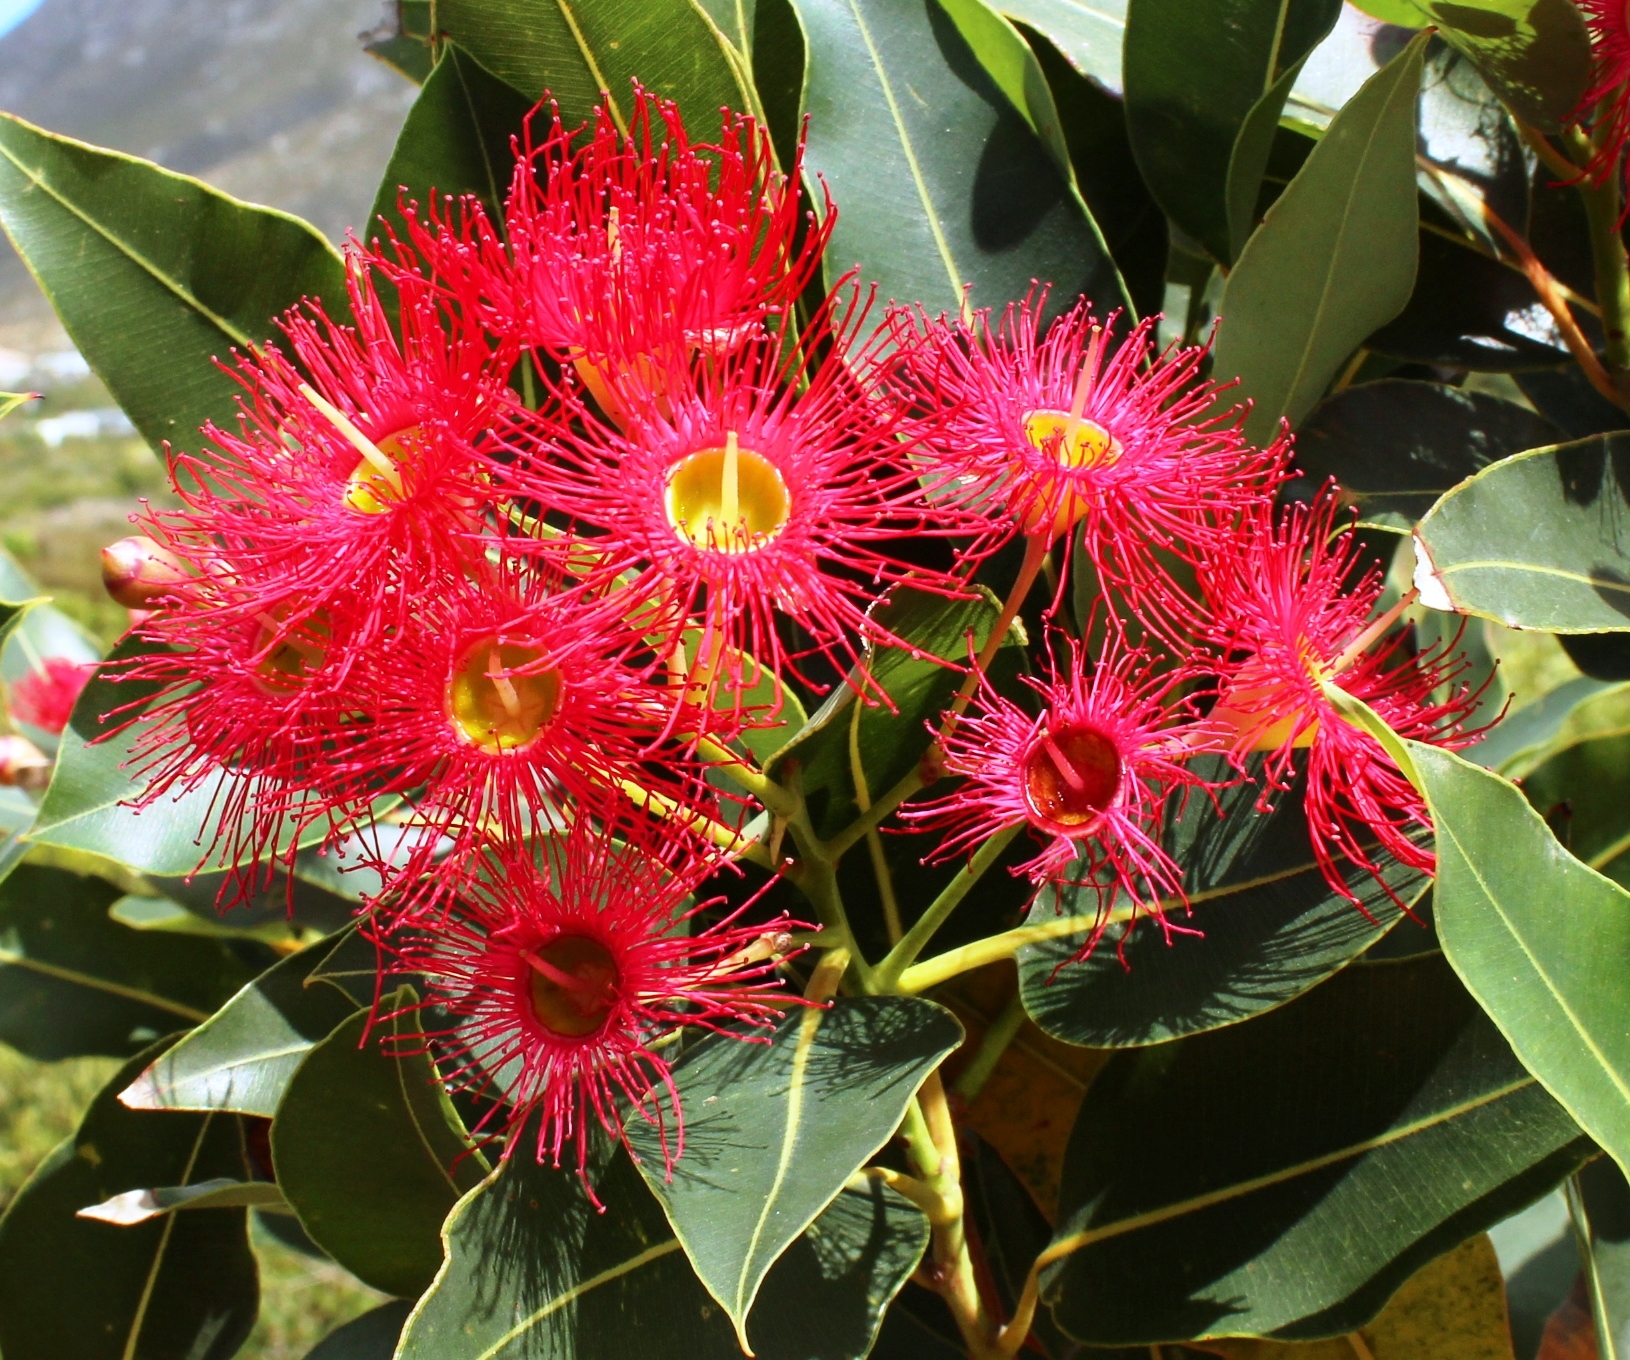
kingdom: Plantae
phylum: Tracheophyta
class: Magnoliopsida
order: Myrtales
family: Myrtaceae
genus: Corymbia
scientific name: Corymbia ficifolia
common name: Redflower gum
